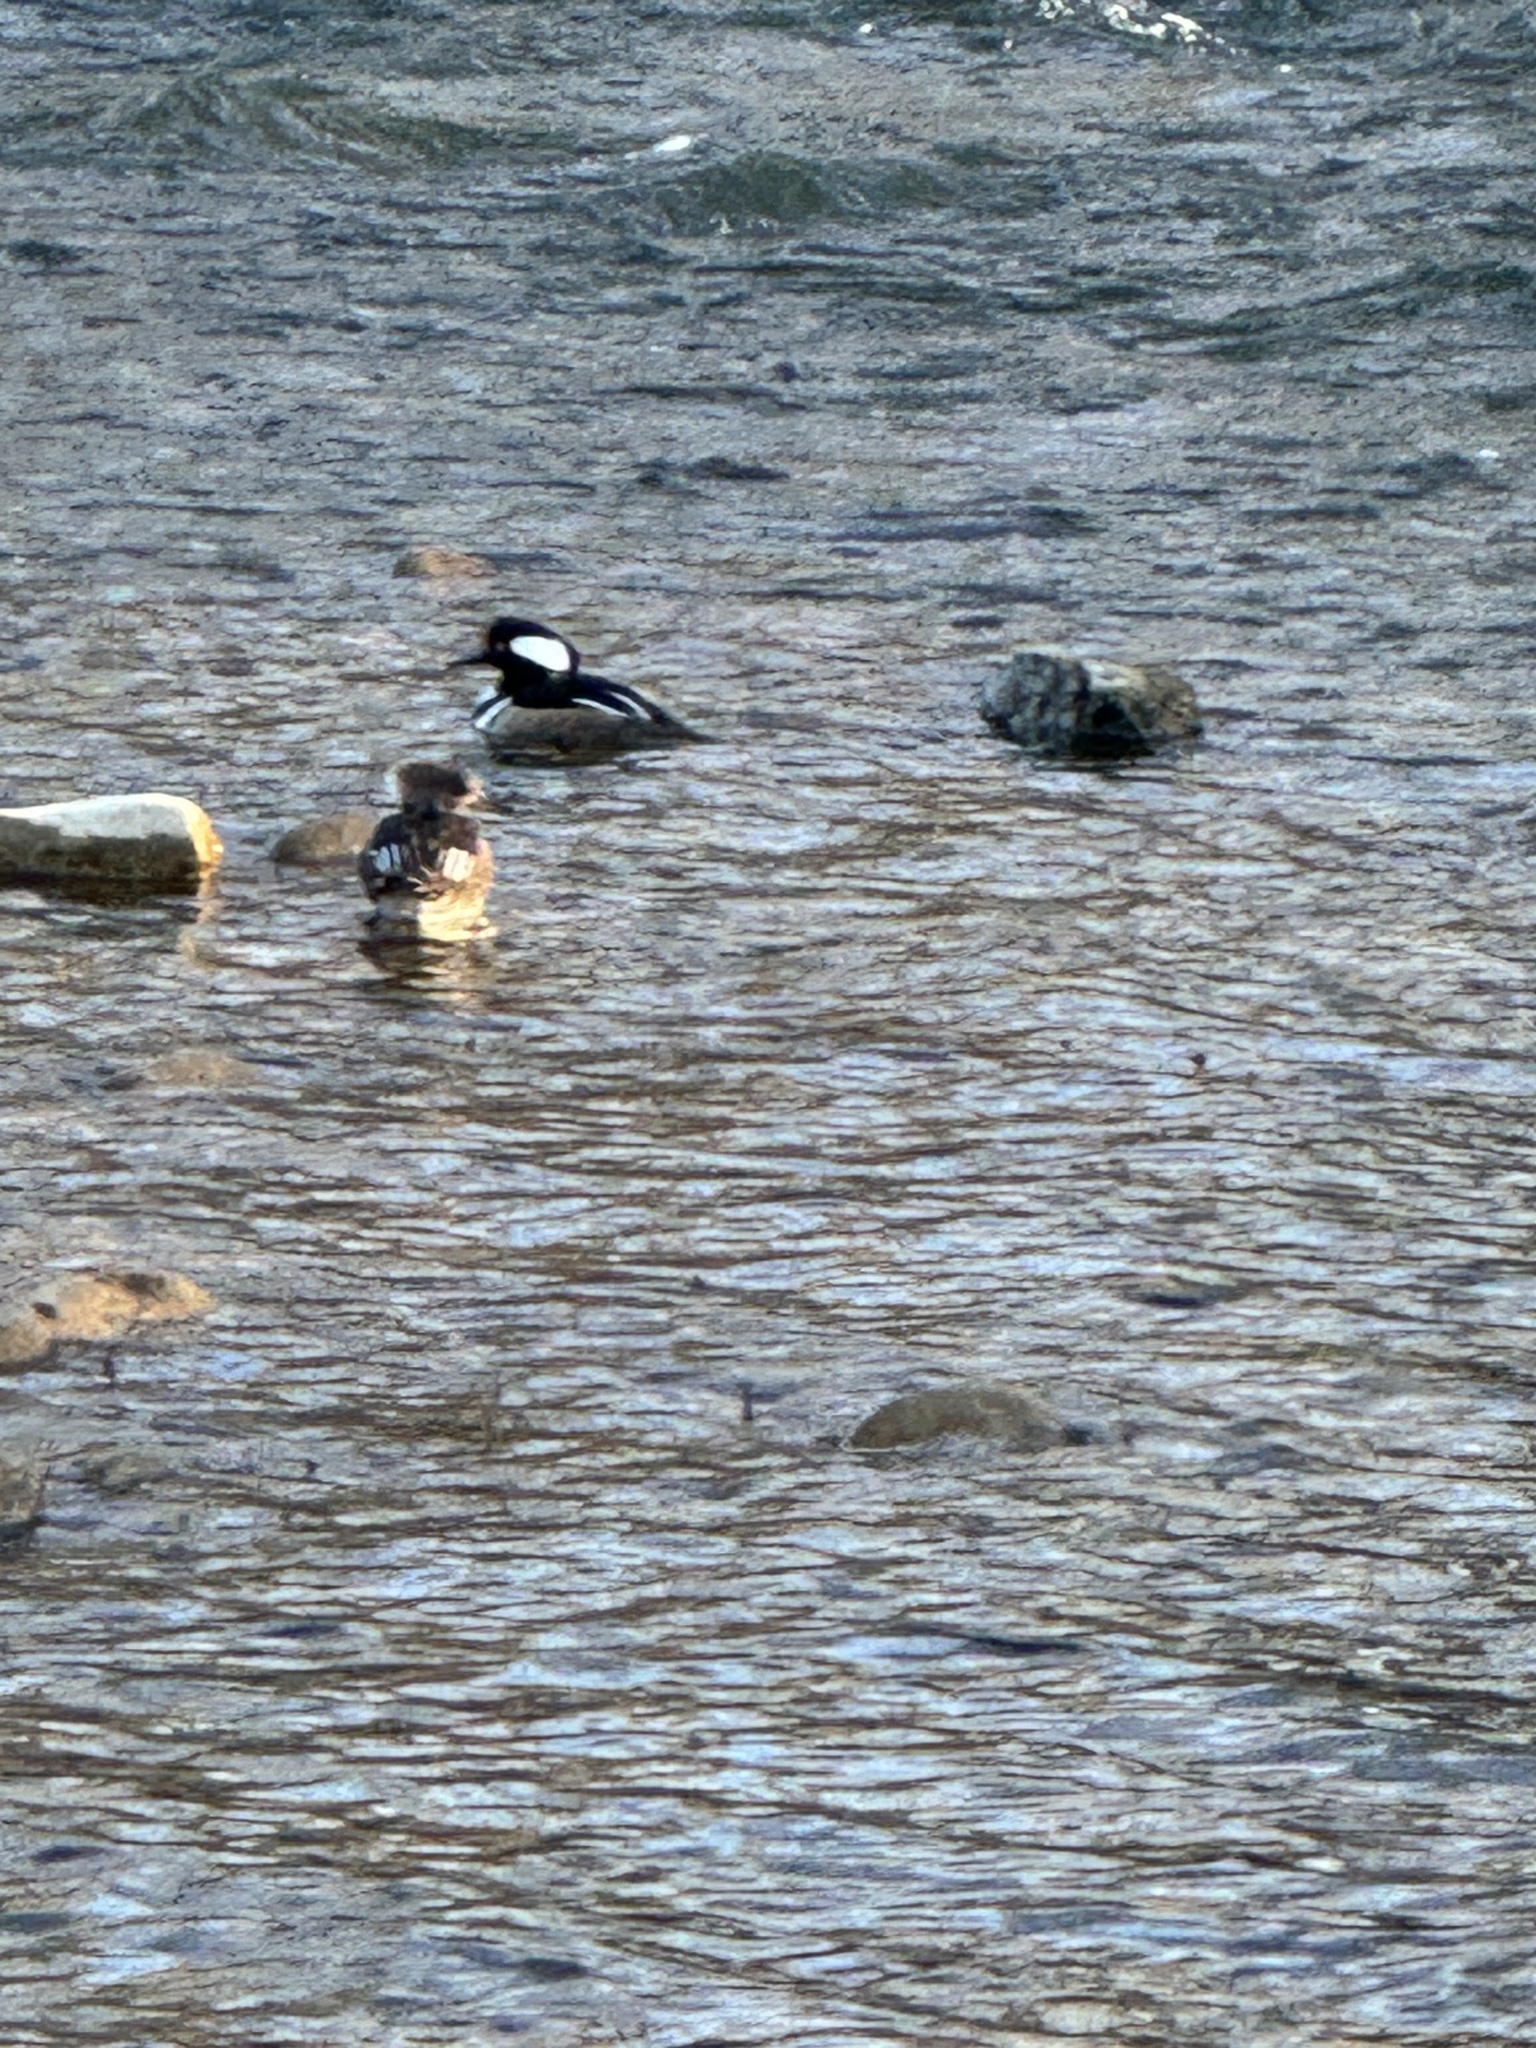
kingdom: Animalia
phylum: Chordata
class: Aves
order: Anseriformes
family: Anatidae
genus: Lophodytes
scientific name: Lophodytes cucullatus
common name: Hooded merganser
